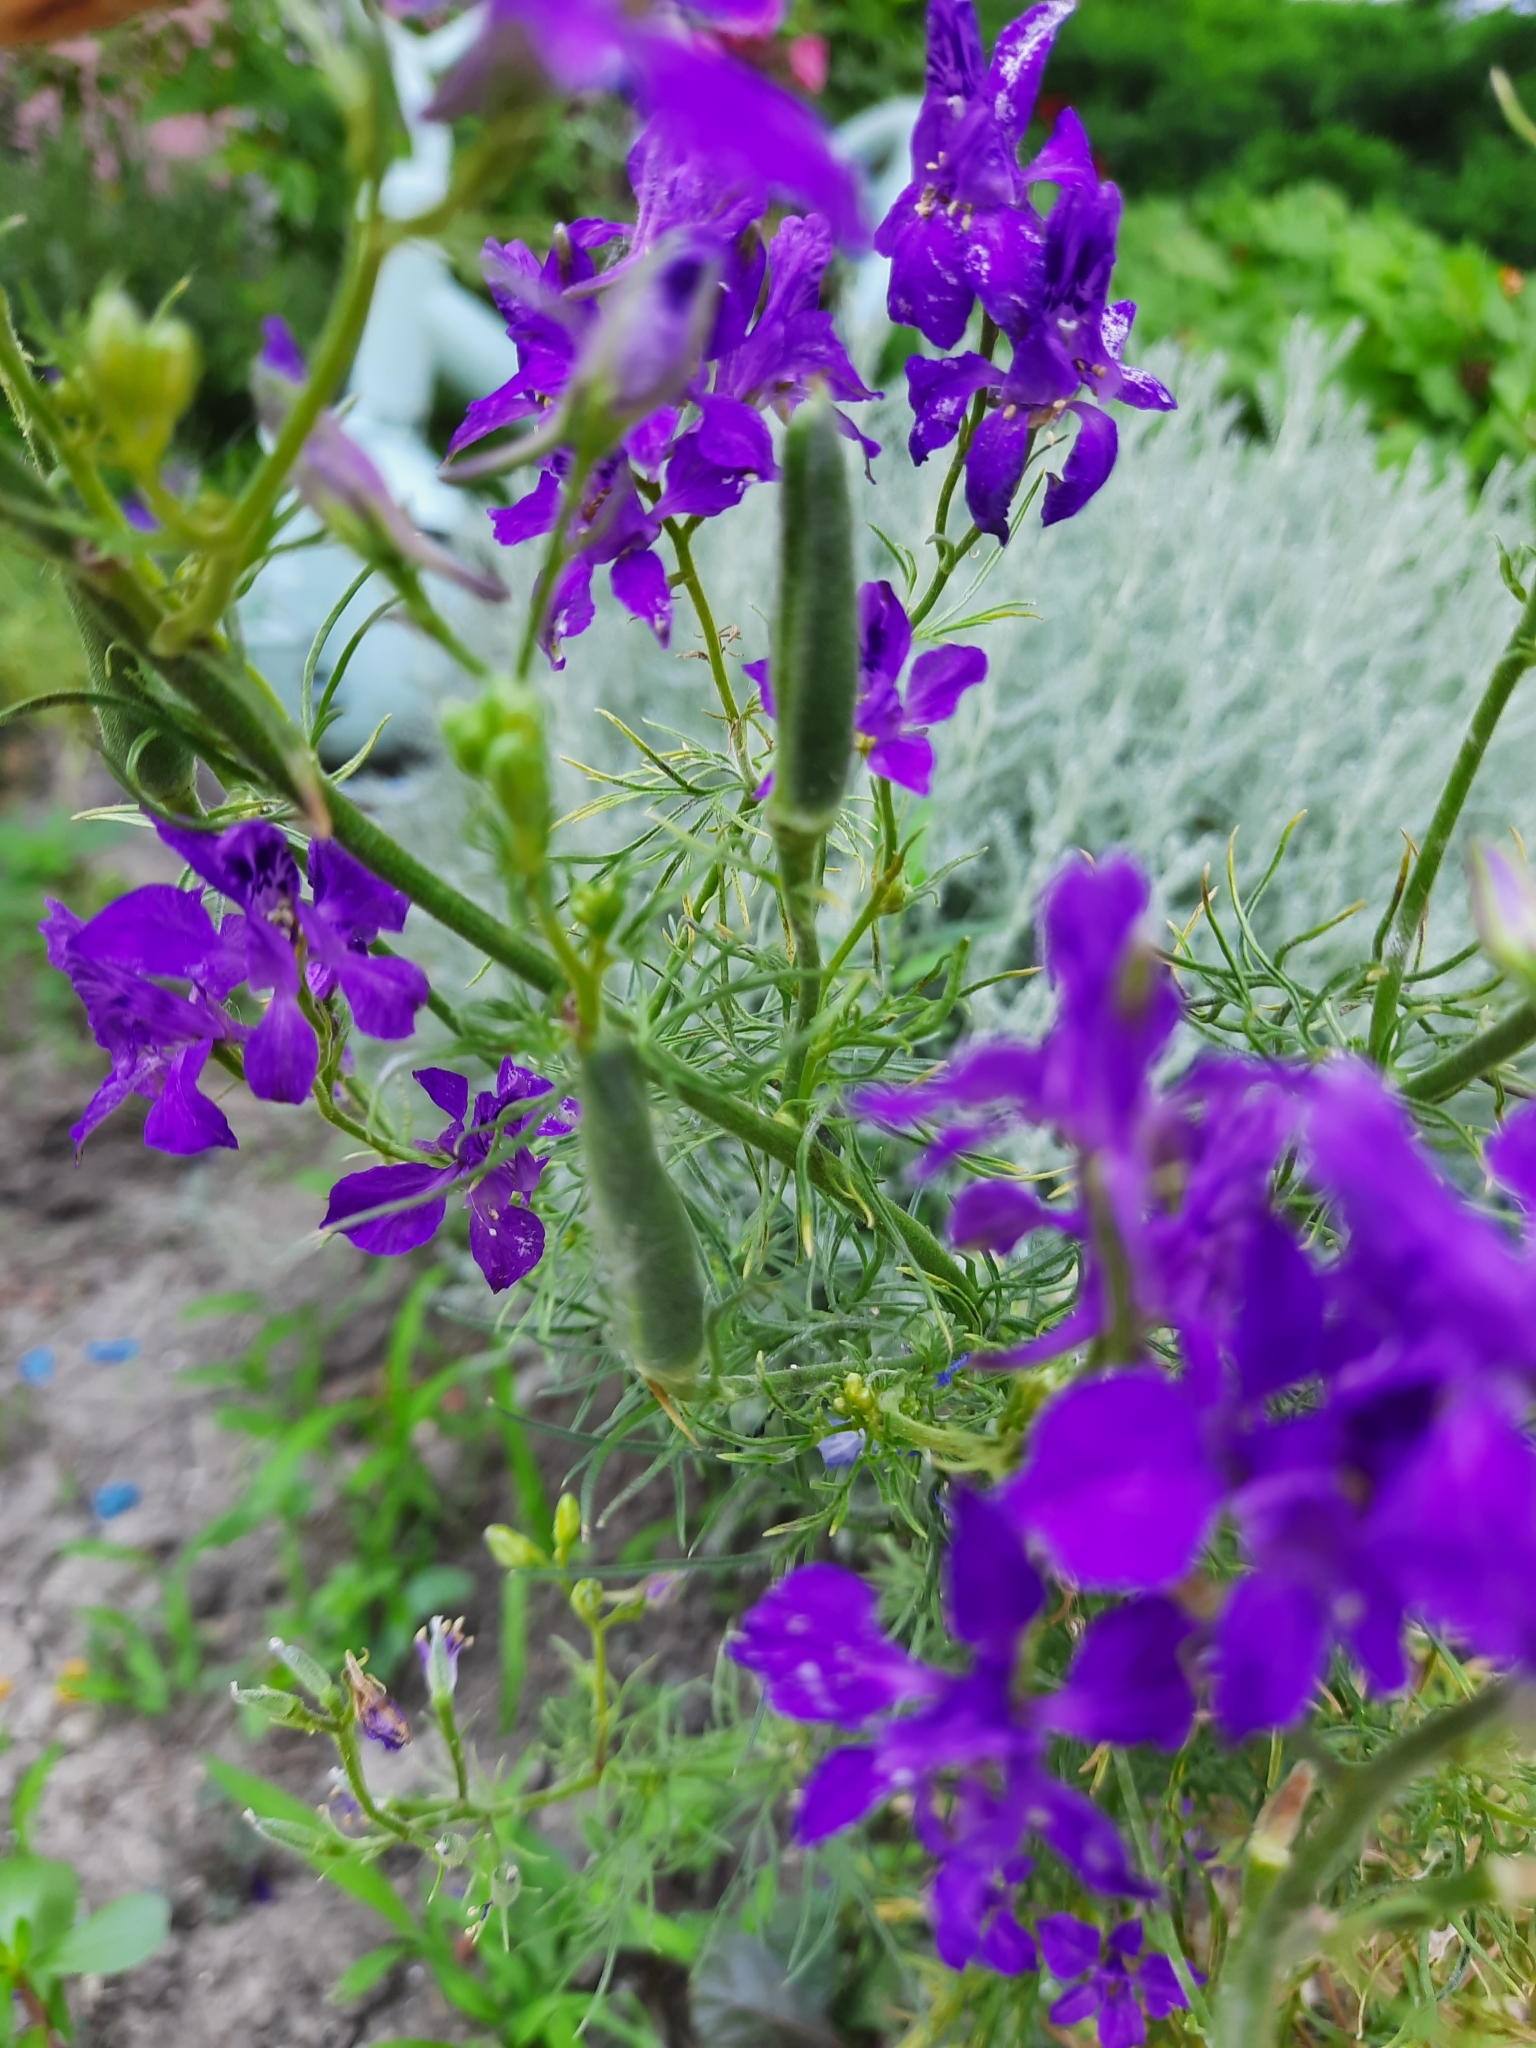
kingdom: Plantae
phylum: Tracheophyta
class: Magnoliopsida
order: Ranunculales
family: Ranunculaceae
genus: Delphinium
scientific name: Delphinium consolida
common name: Branching larkspur
